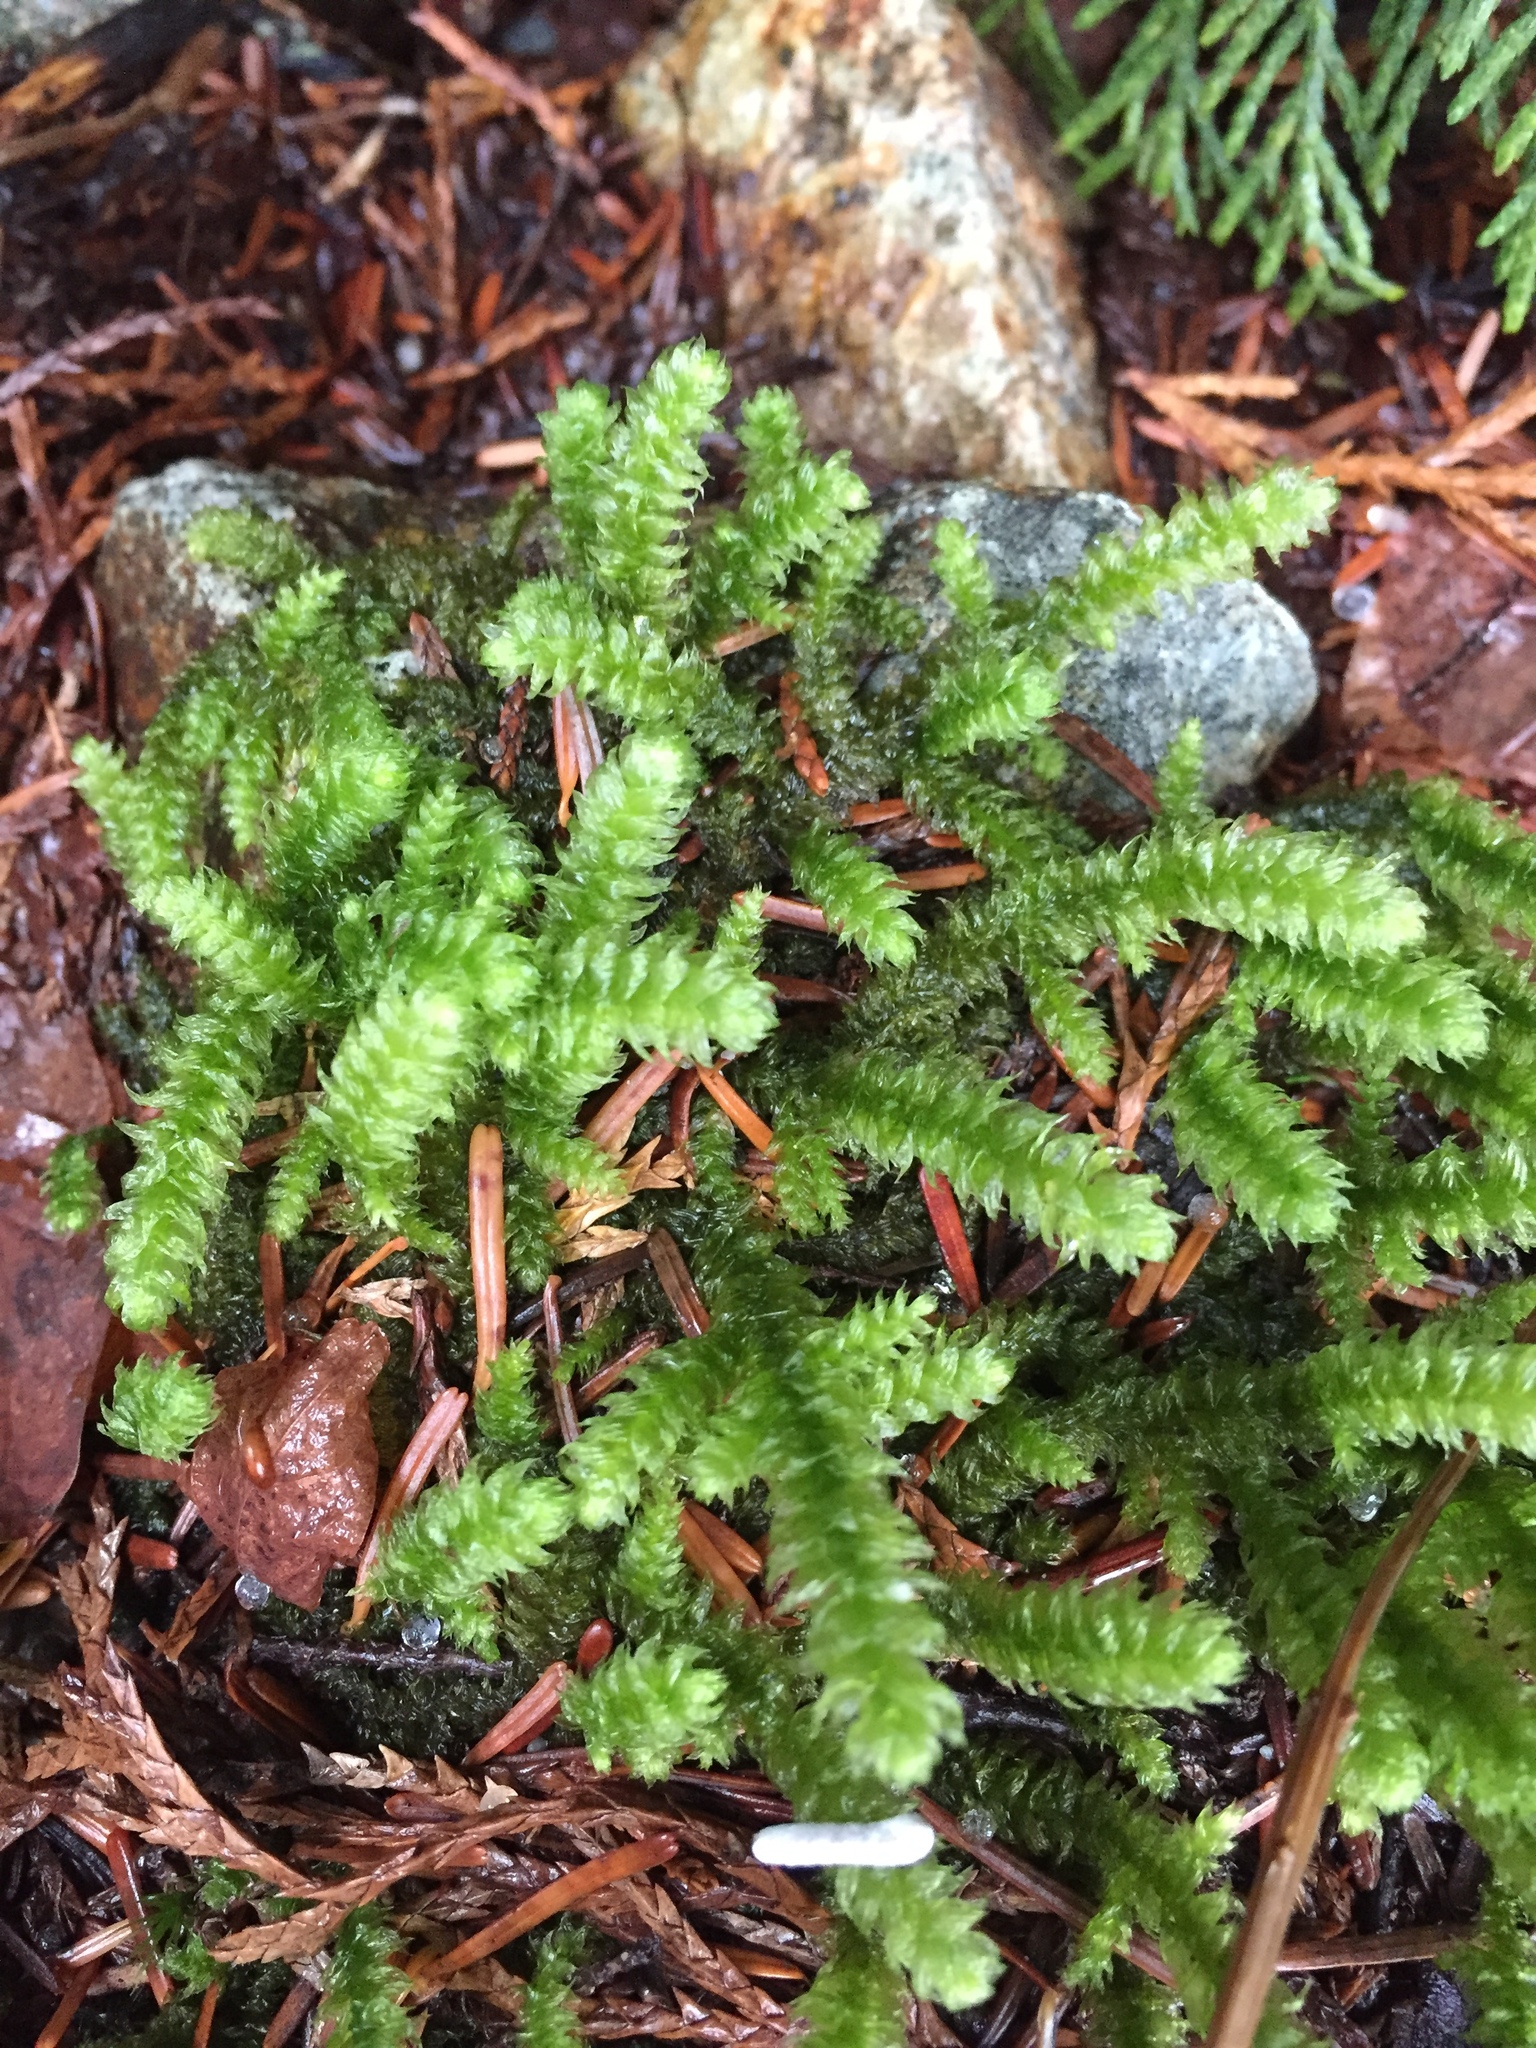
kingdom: Plantae
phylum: Bryophyta
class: Bryopsida
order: Hypnales
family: Hylocomiaceae
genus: Rhytidiopsis
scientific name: Rhytidiopsis robusta
